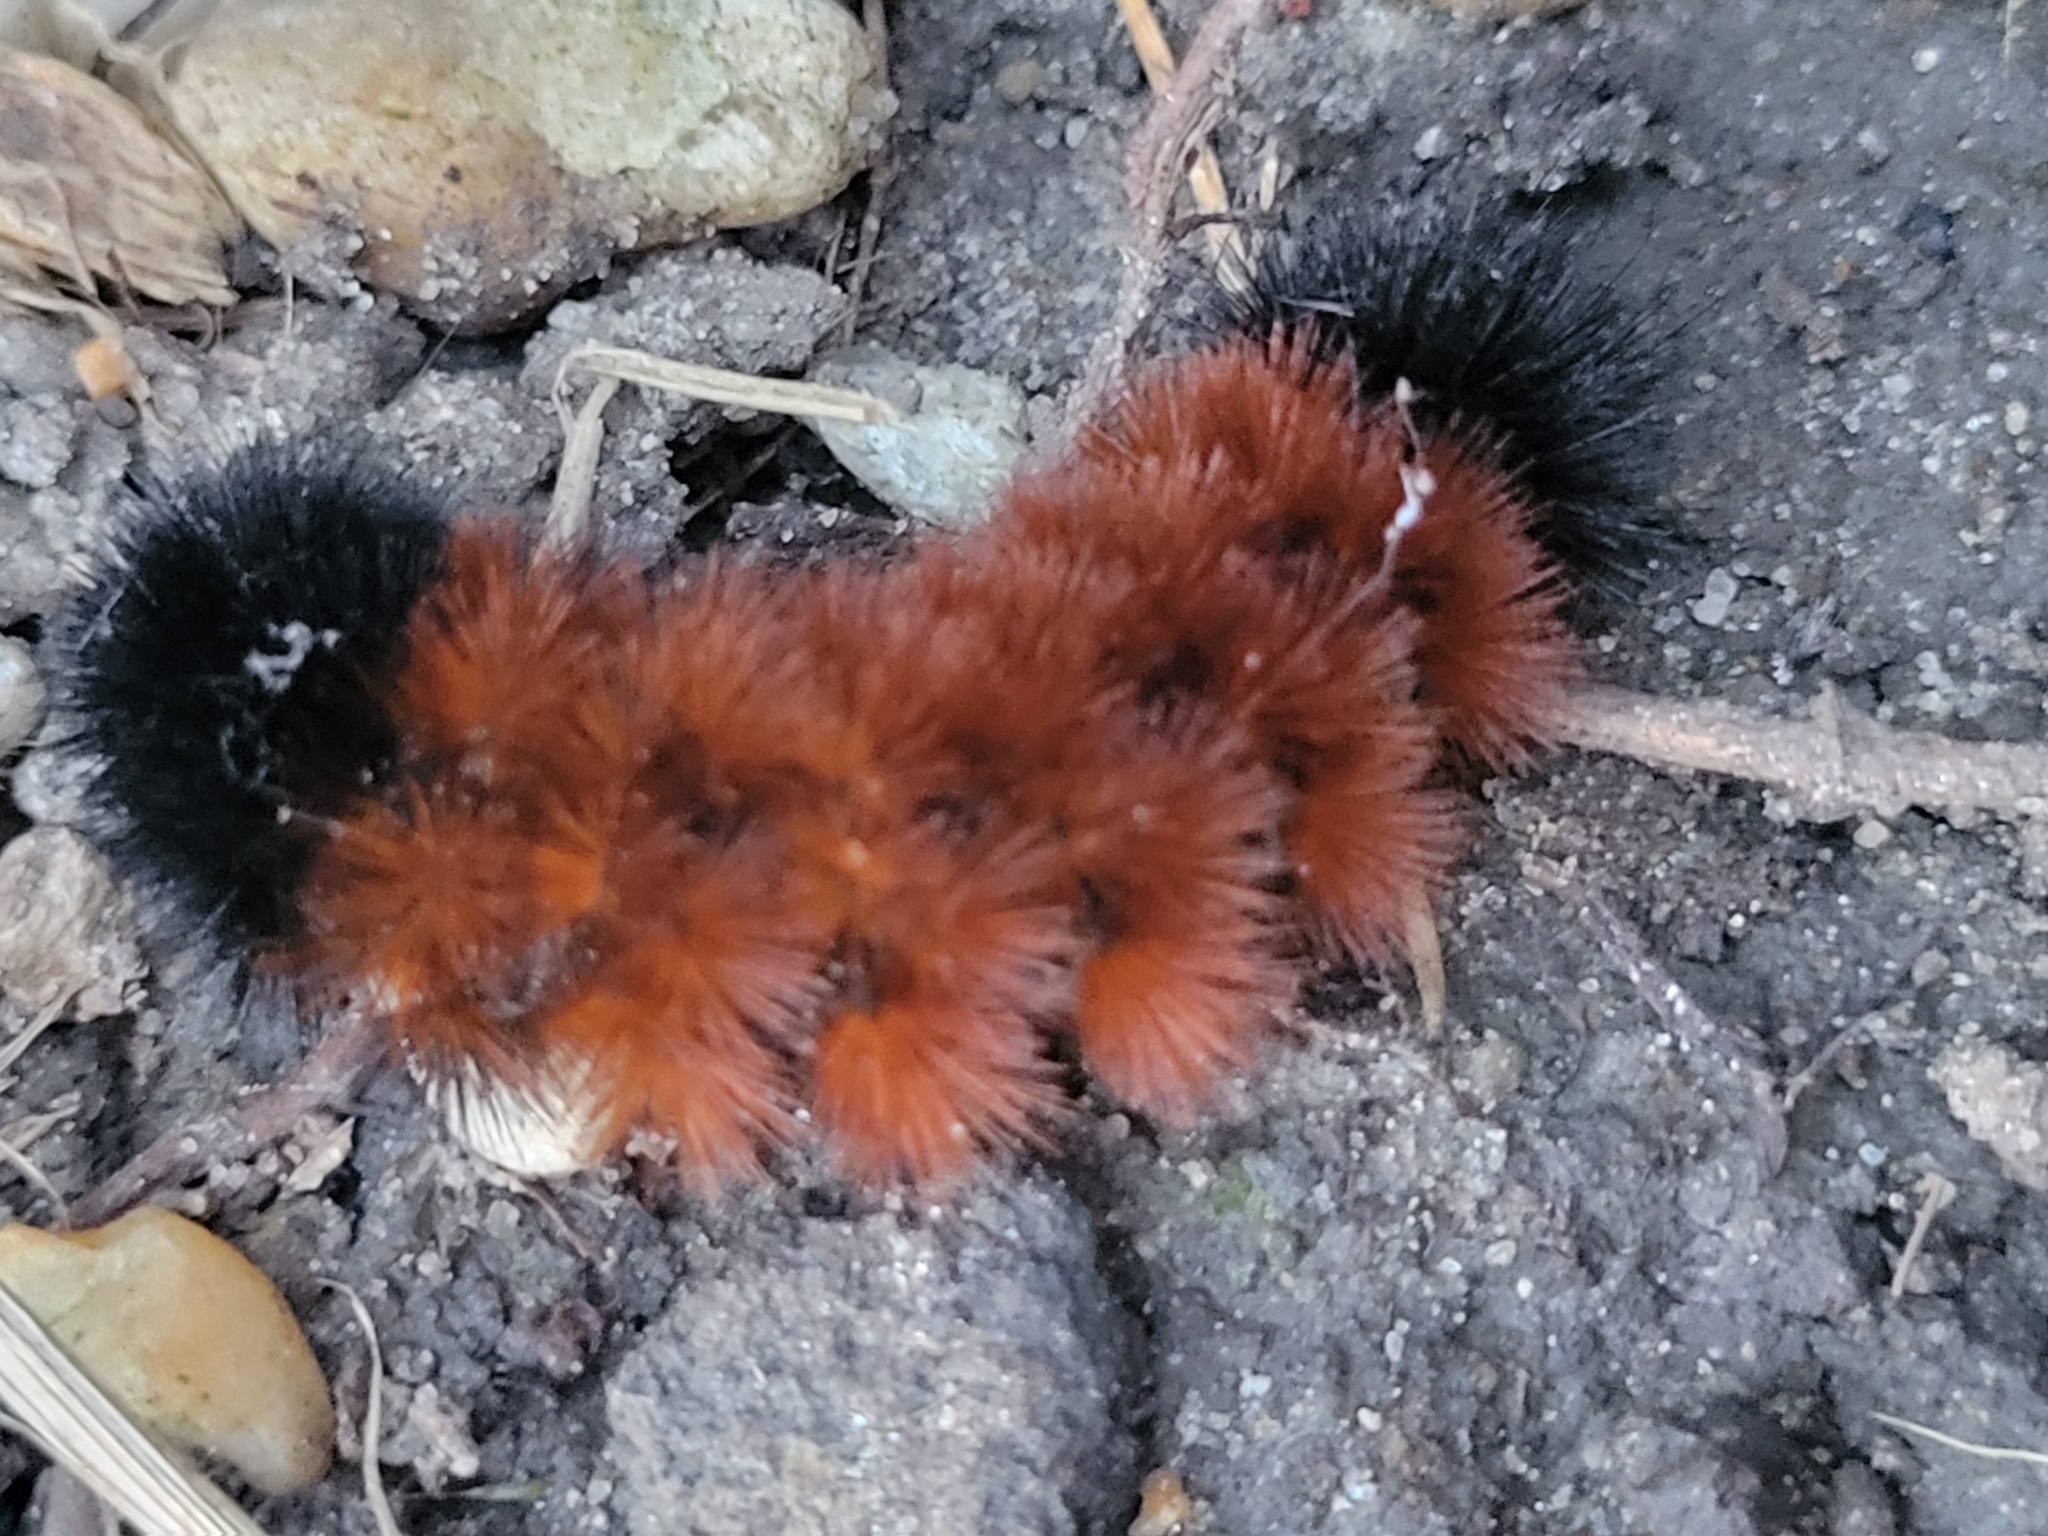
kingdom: Animalia
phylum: Arthropoda
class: Insecta
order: Lepidoptera
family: Erebidae
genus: Pyrrharctia
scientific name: Pyrrharctia isabella
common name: Isabella tiger moth
